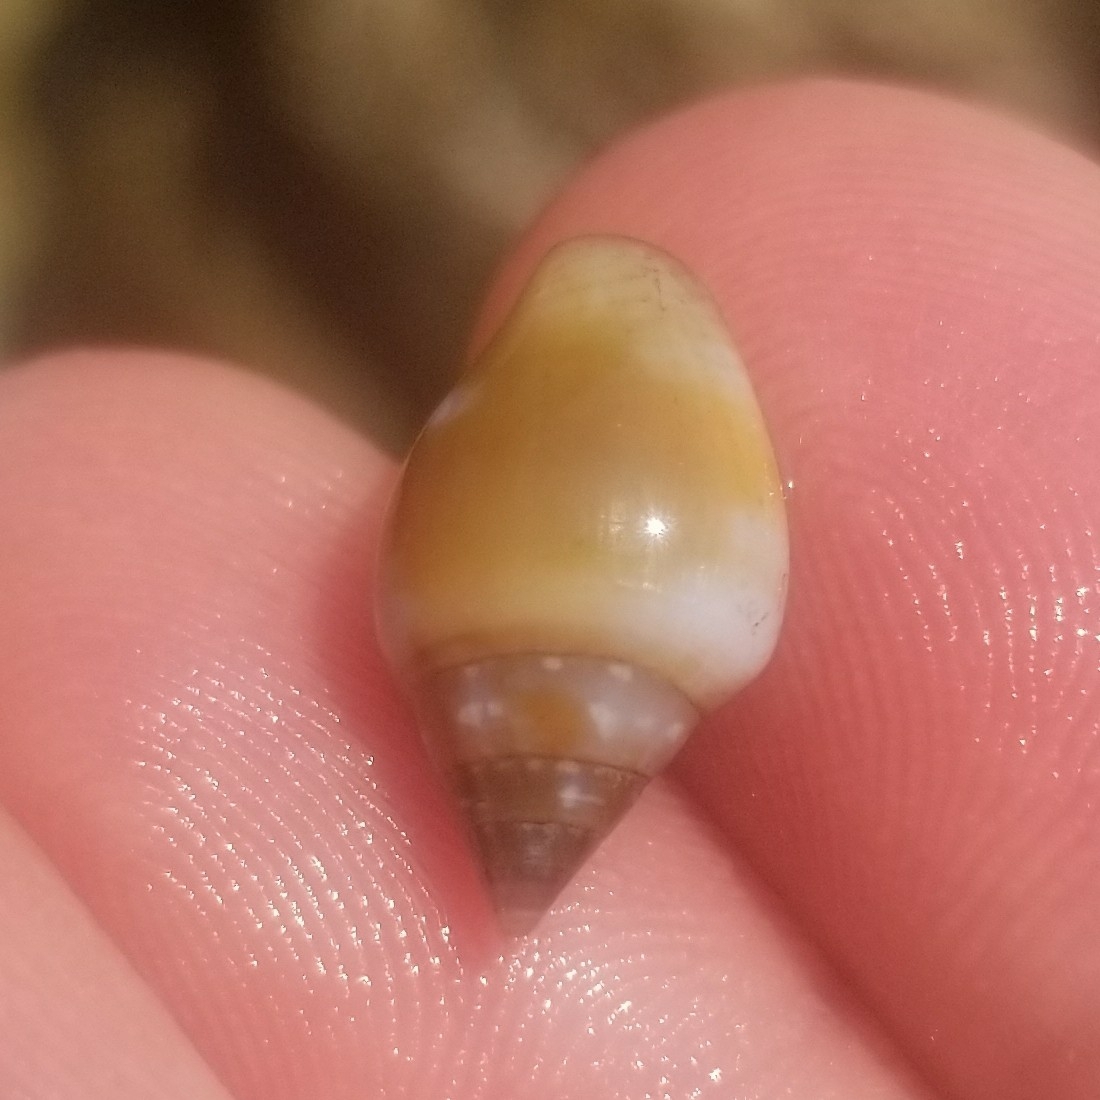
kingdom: Animalia
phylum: Mollusca
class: Gastropoda
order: Neogastropoda
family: Columbellidae
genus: Columbella
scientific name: Columbella rustica
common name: Rustic dove shell
